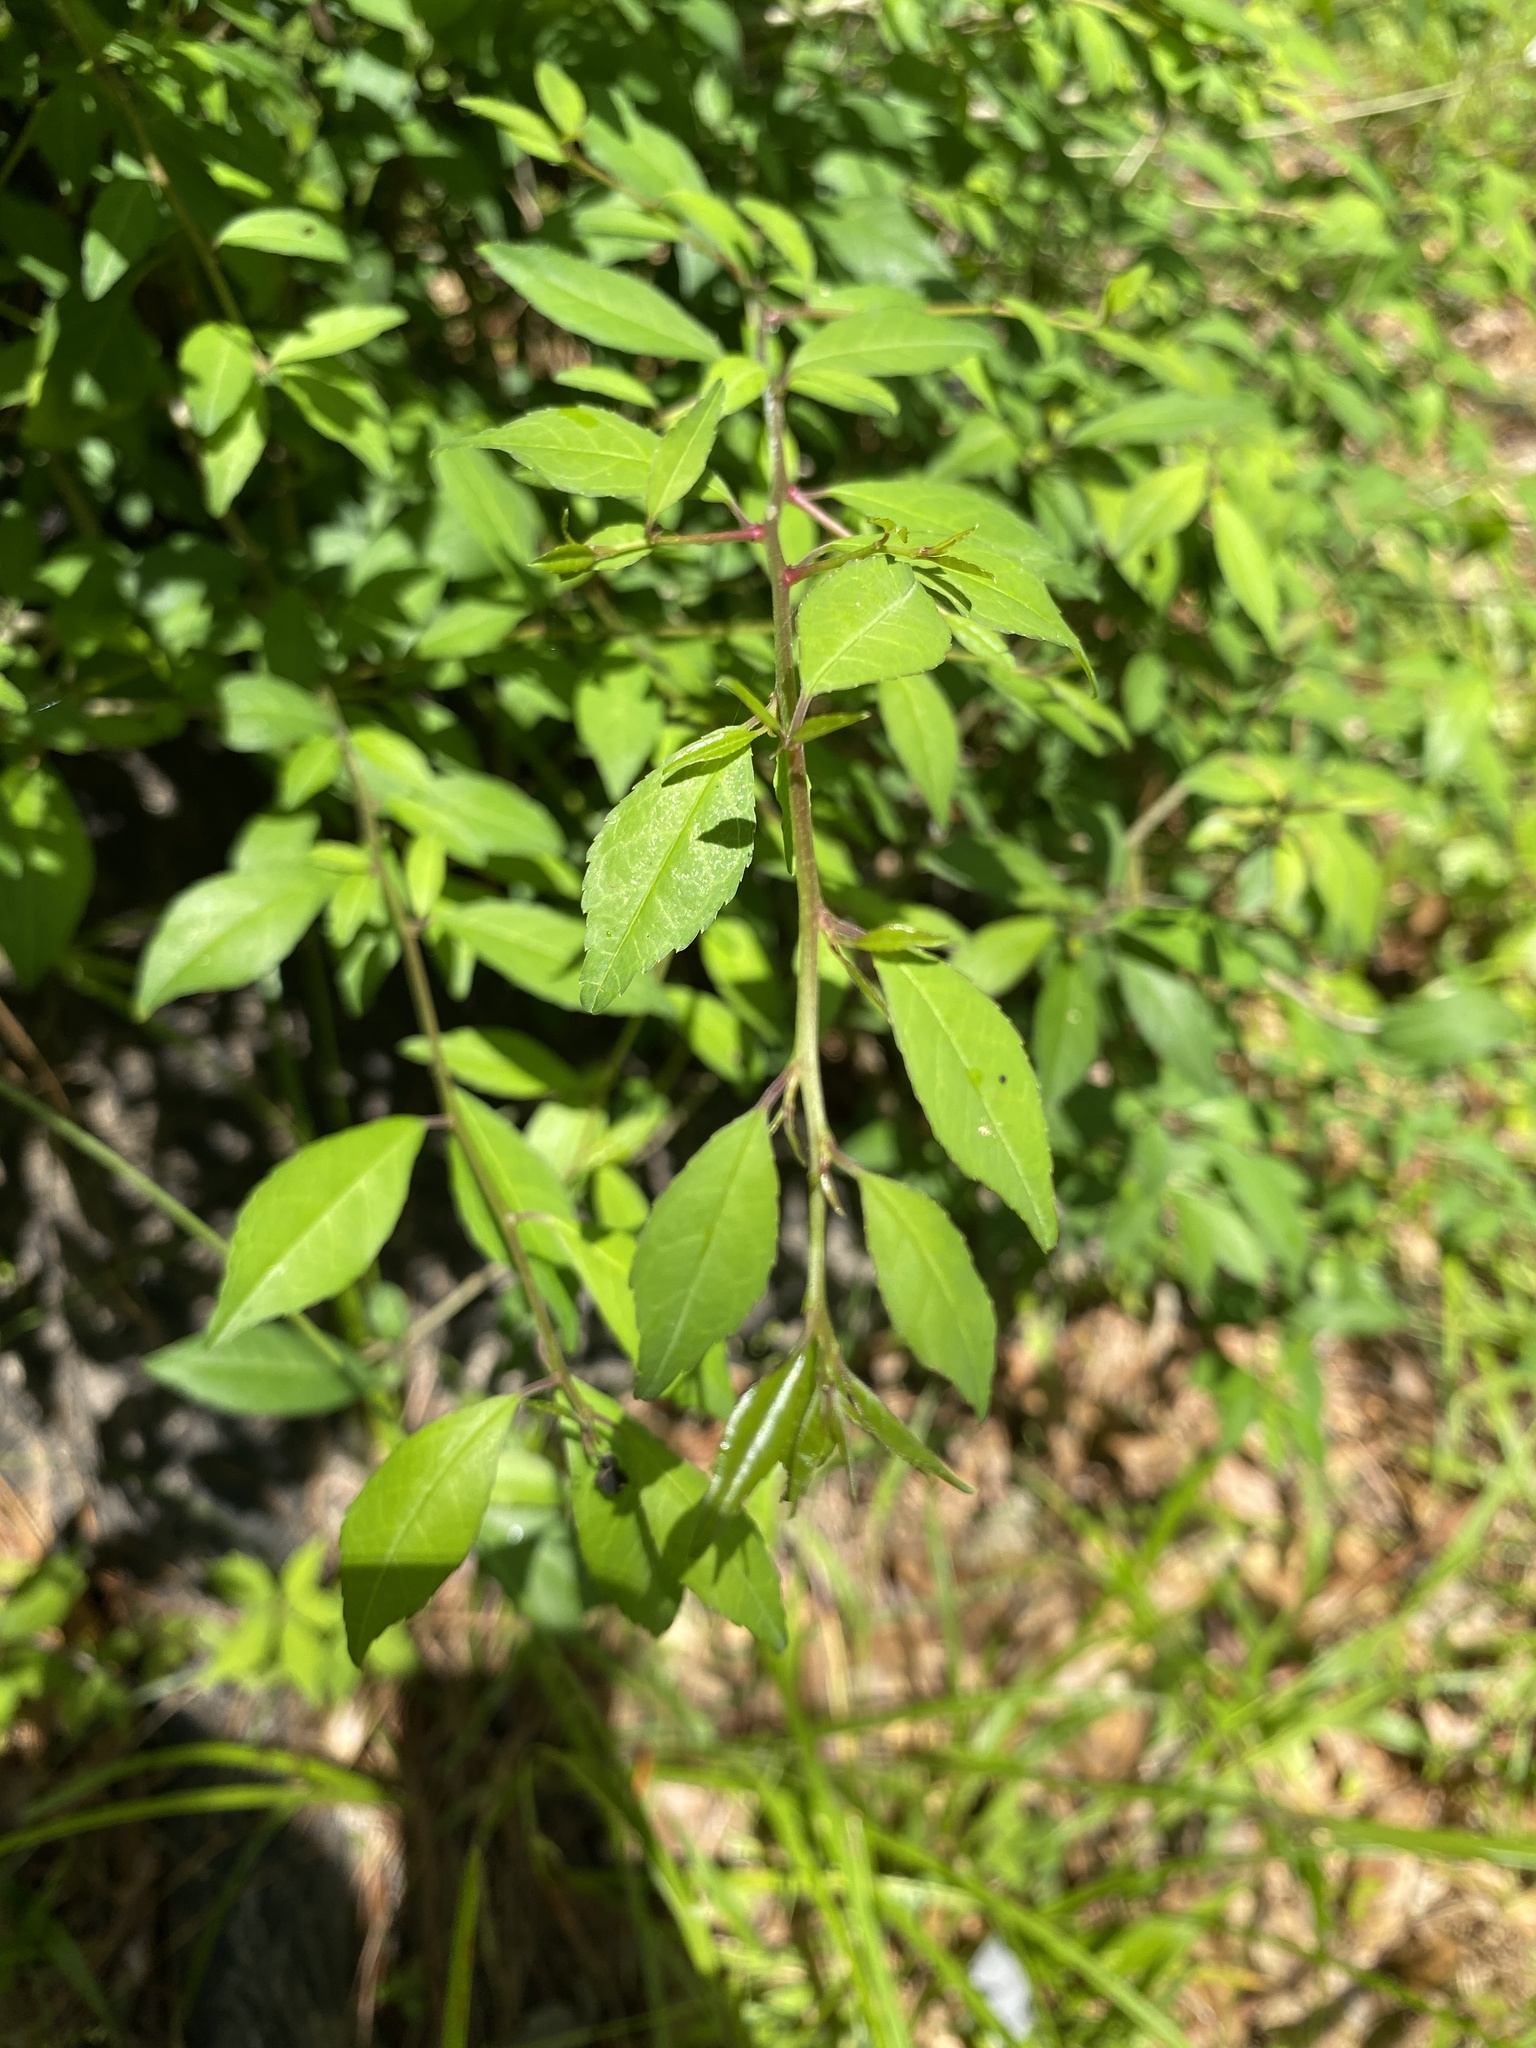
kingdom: Plantae
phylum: Tracheophyta
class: Magnoliopsida
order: Aquifoliales
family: Aquifoliaceae
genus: Ilex
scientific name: Ilex decidua
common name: Possum-haw
